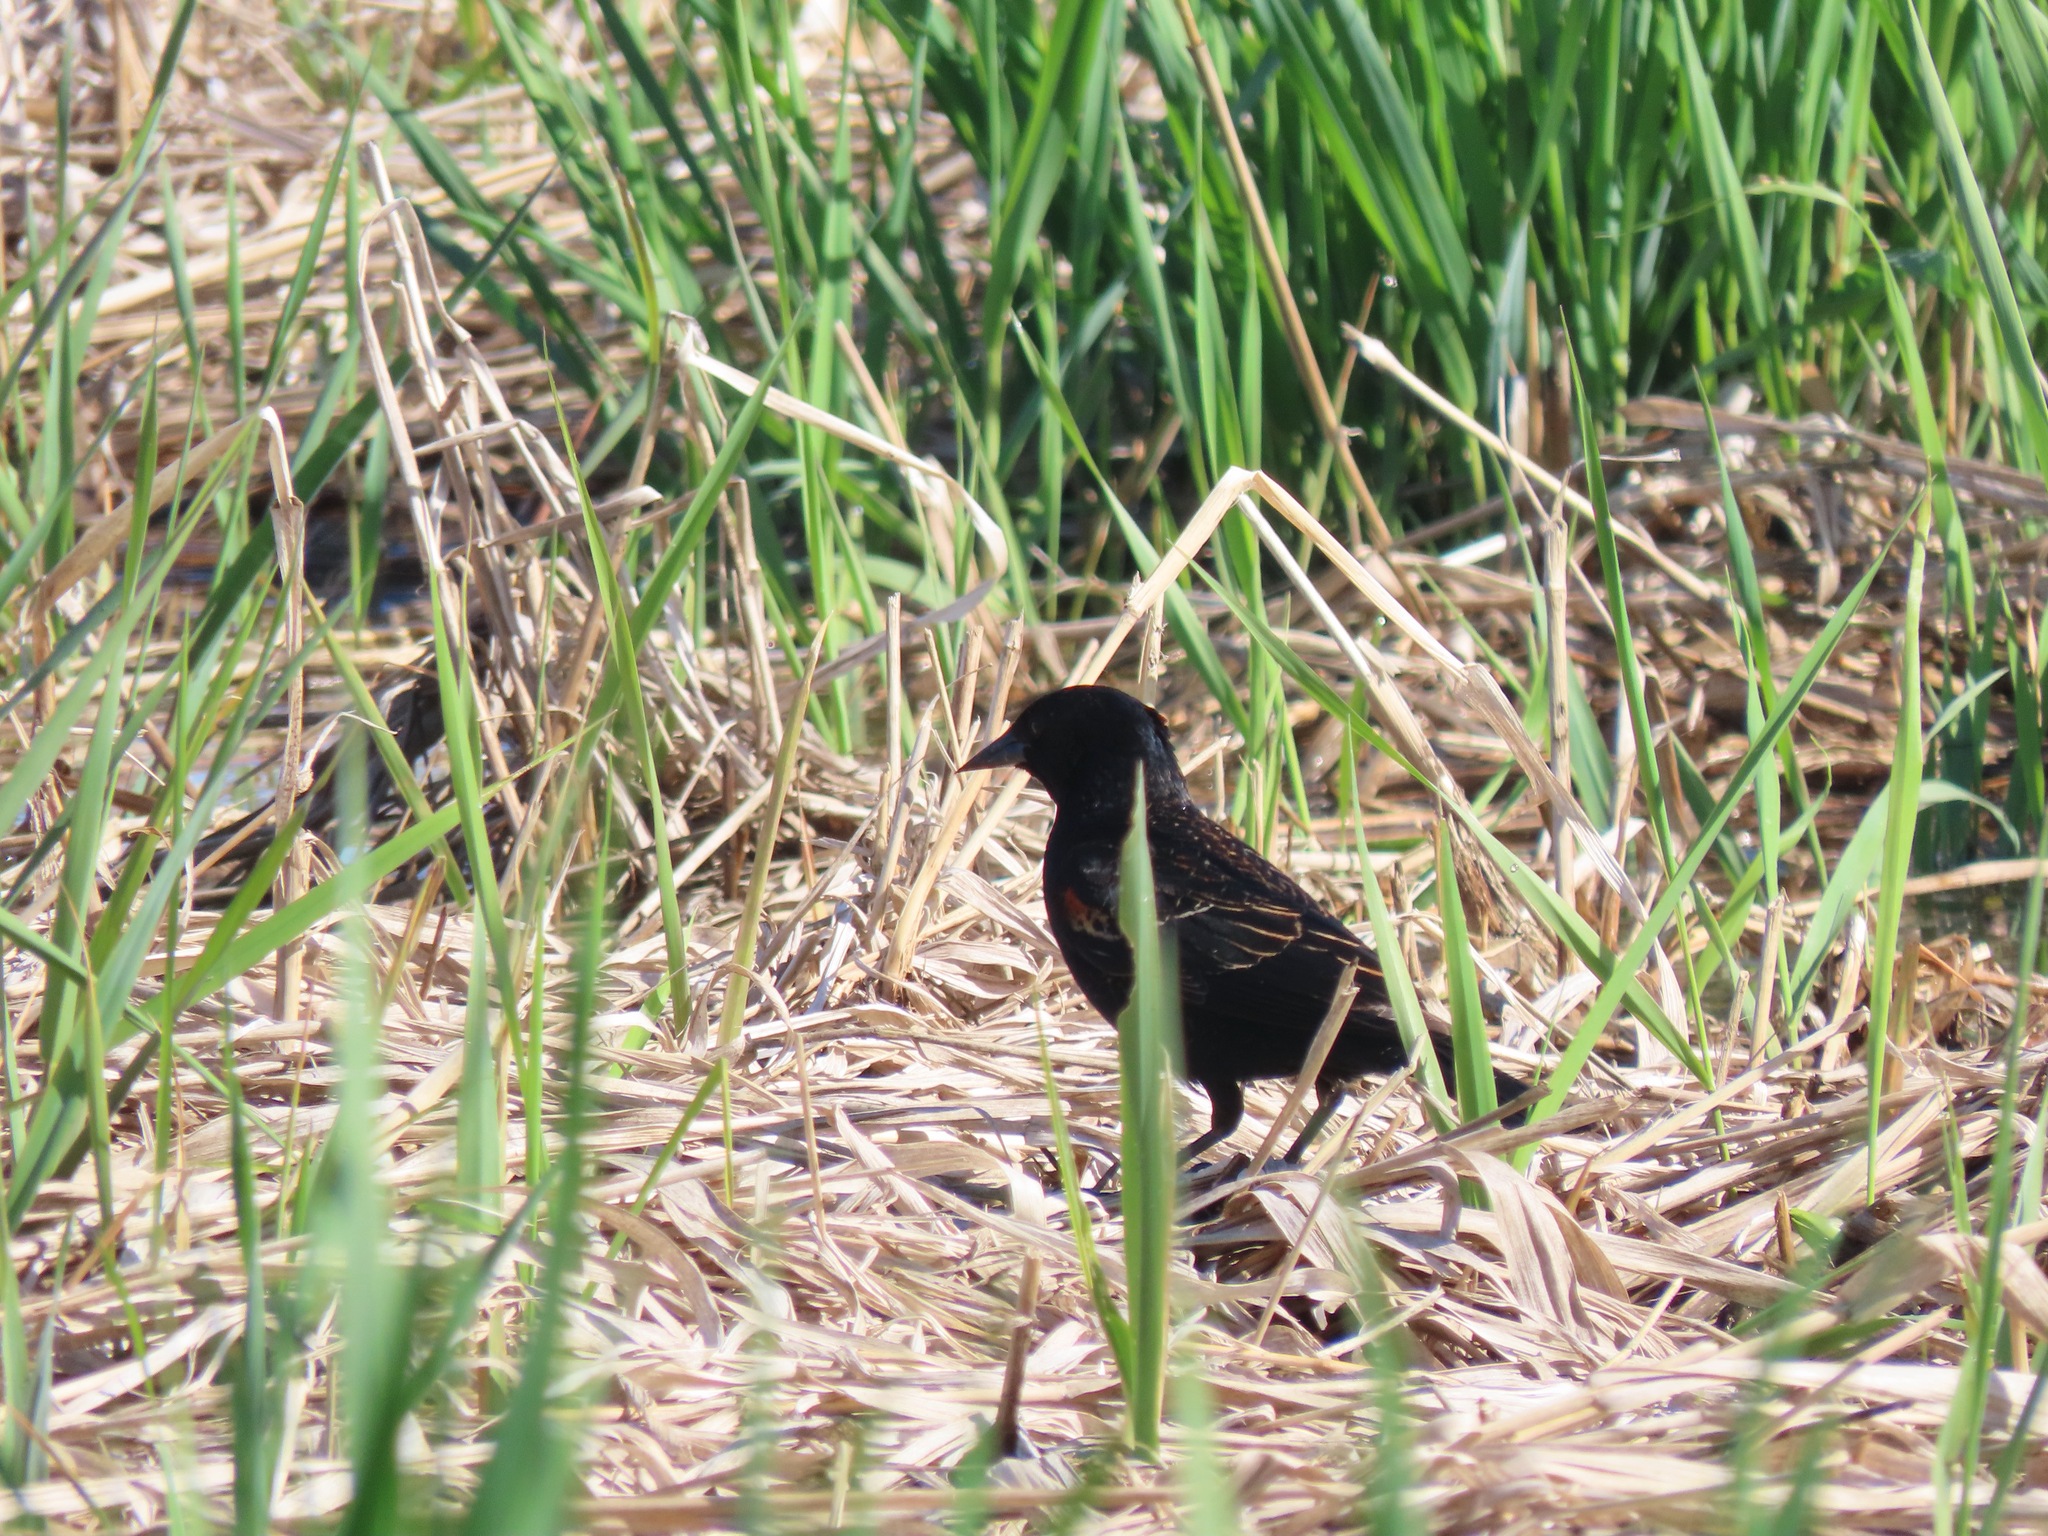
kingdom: Animalia
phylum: Chordata
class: Aves
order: Passeriformes
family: Icteridae
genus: Agelaius
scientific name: Agelaius phoeniceus
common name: Red-winged blackbird
